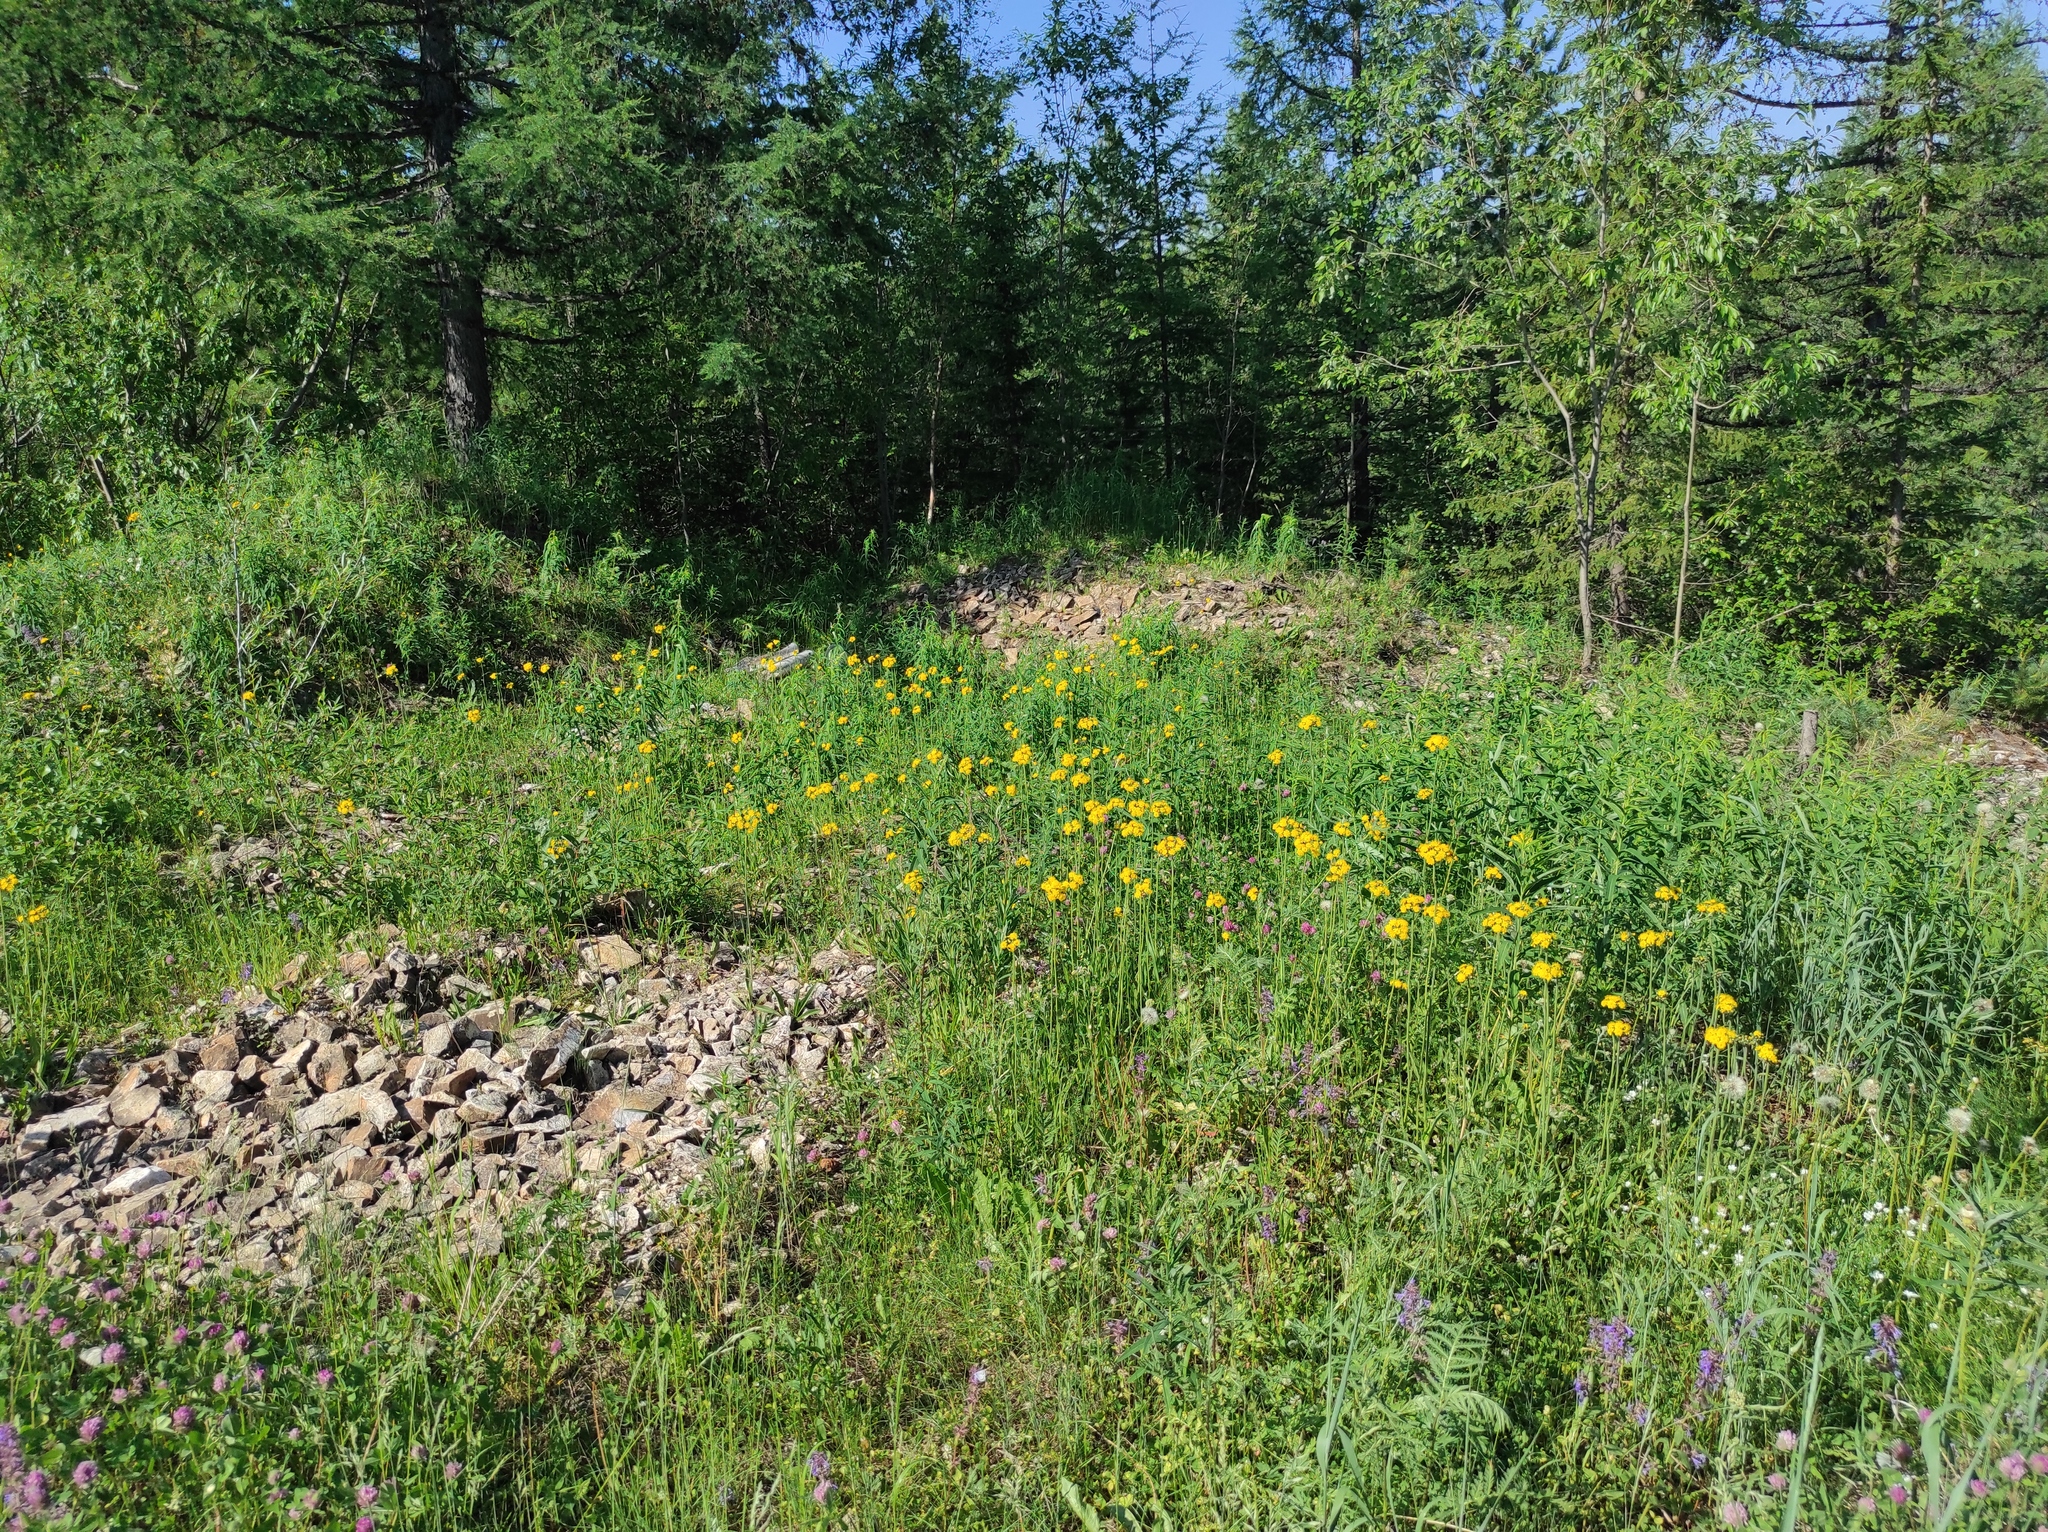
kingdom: Plantae
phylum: Tracheophyta
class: Magnoliopsida
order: Fabales
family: Fabaceae
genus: Trifolium
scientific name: Trifolium pratense
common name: Red clover
